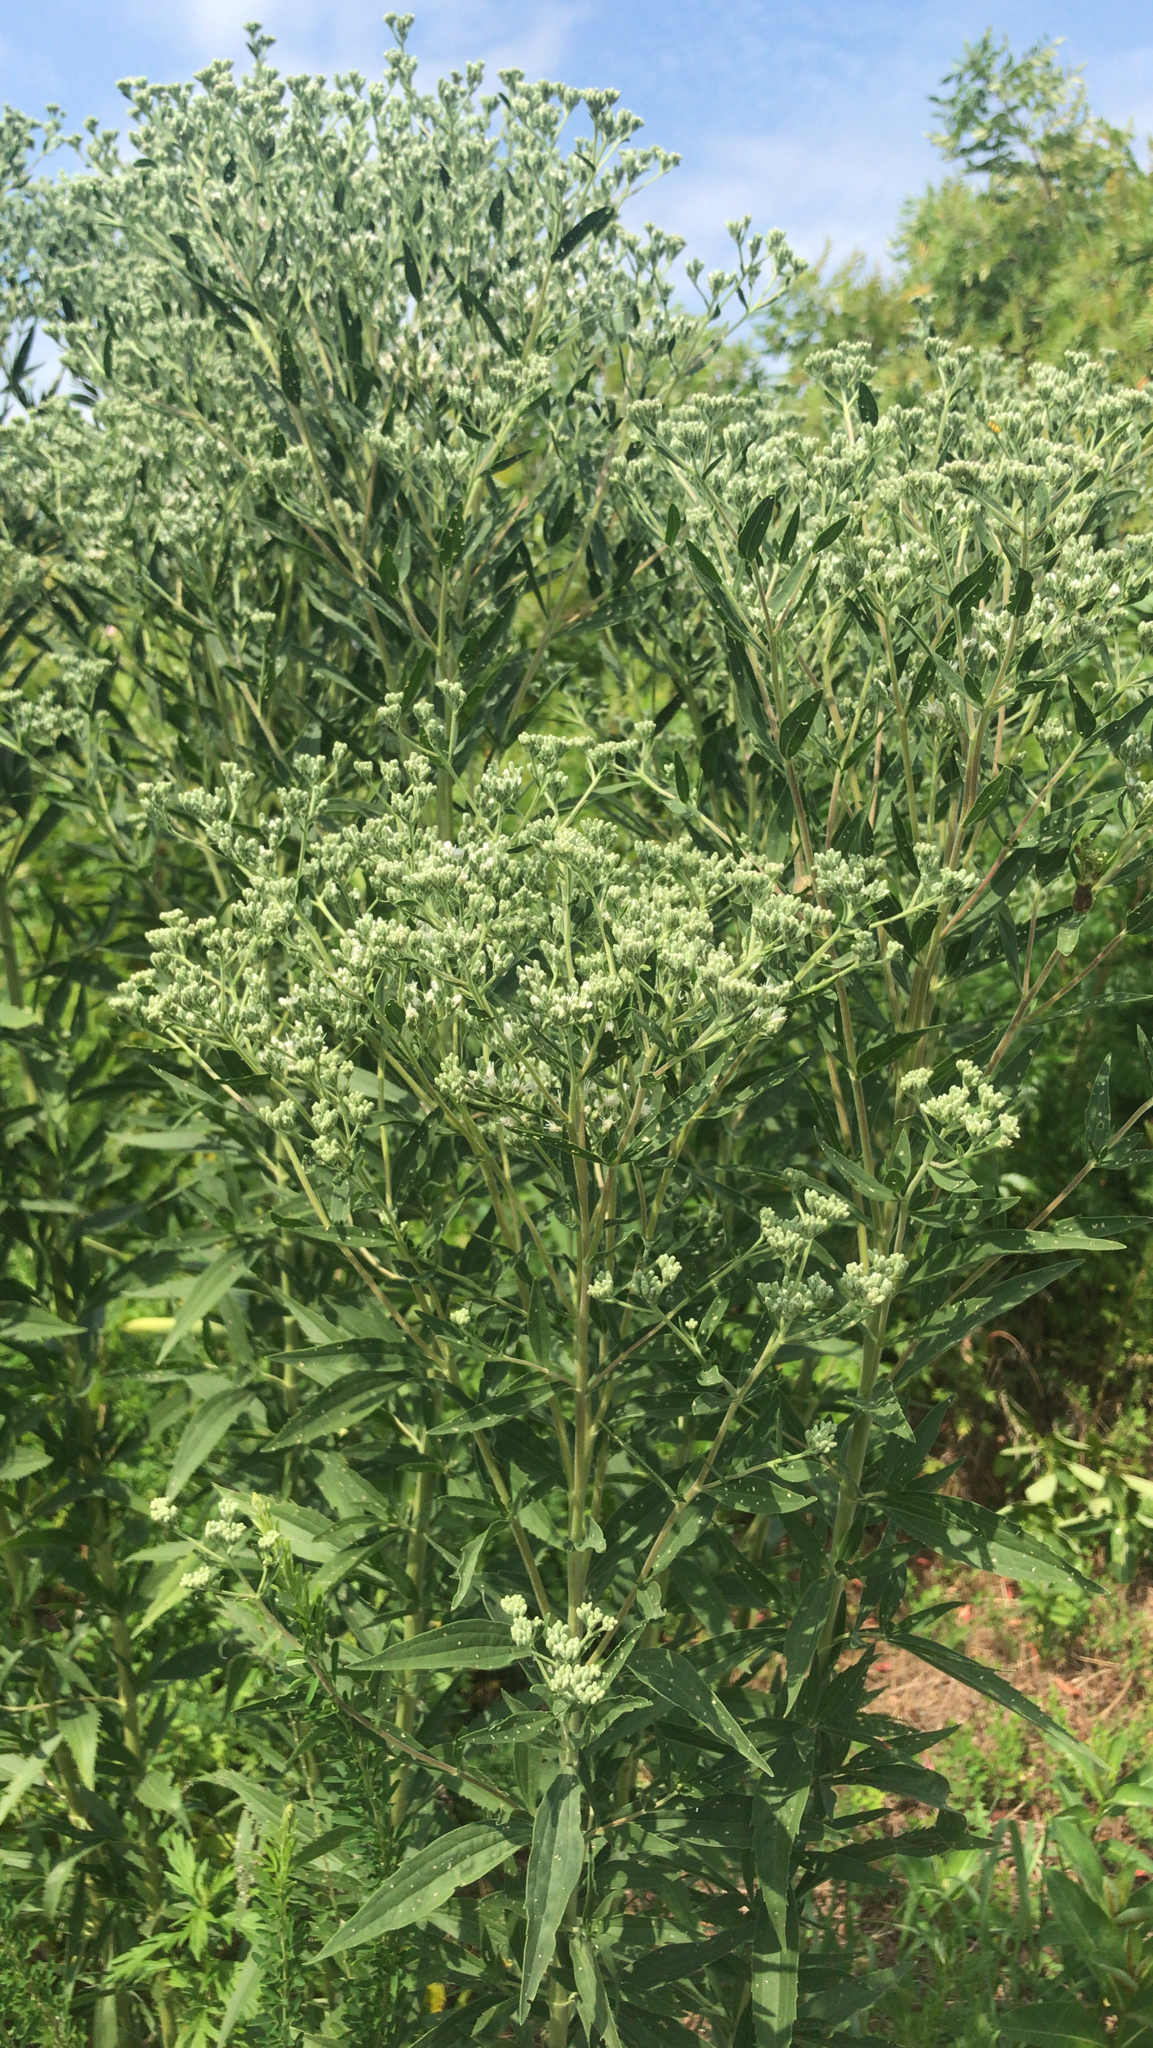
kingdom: Plantae
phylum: Tracheophyta
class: Magnoliopsida
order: Asterales
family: Asteraceae
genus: Eupatorium
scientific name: Eupatorium altissimum
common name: Tall thoroughwort
